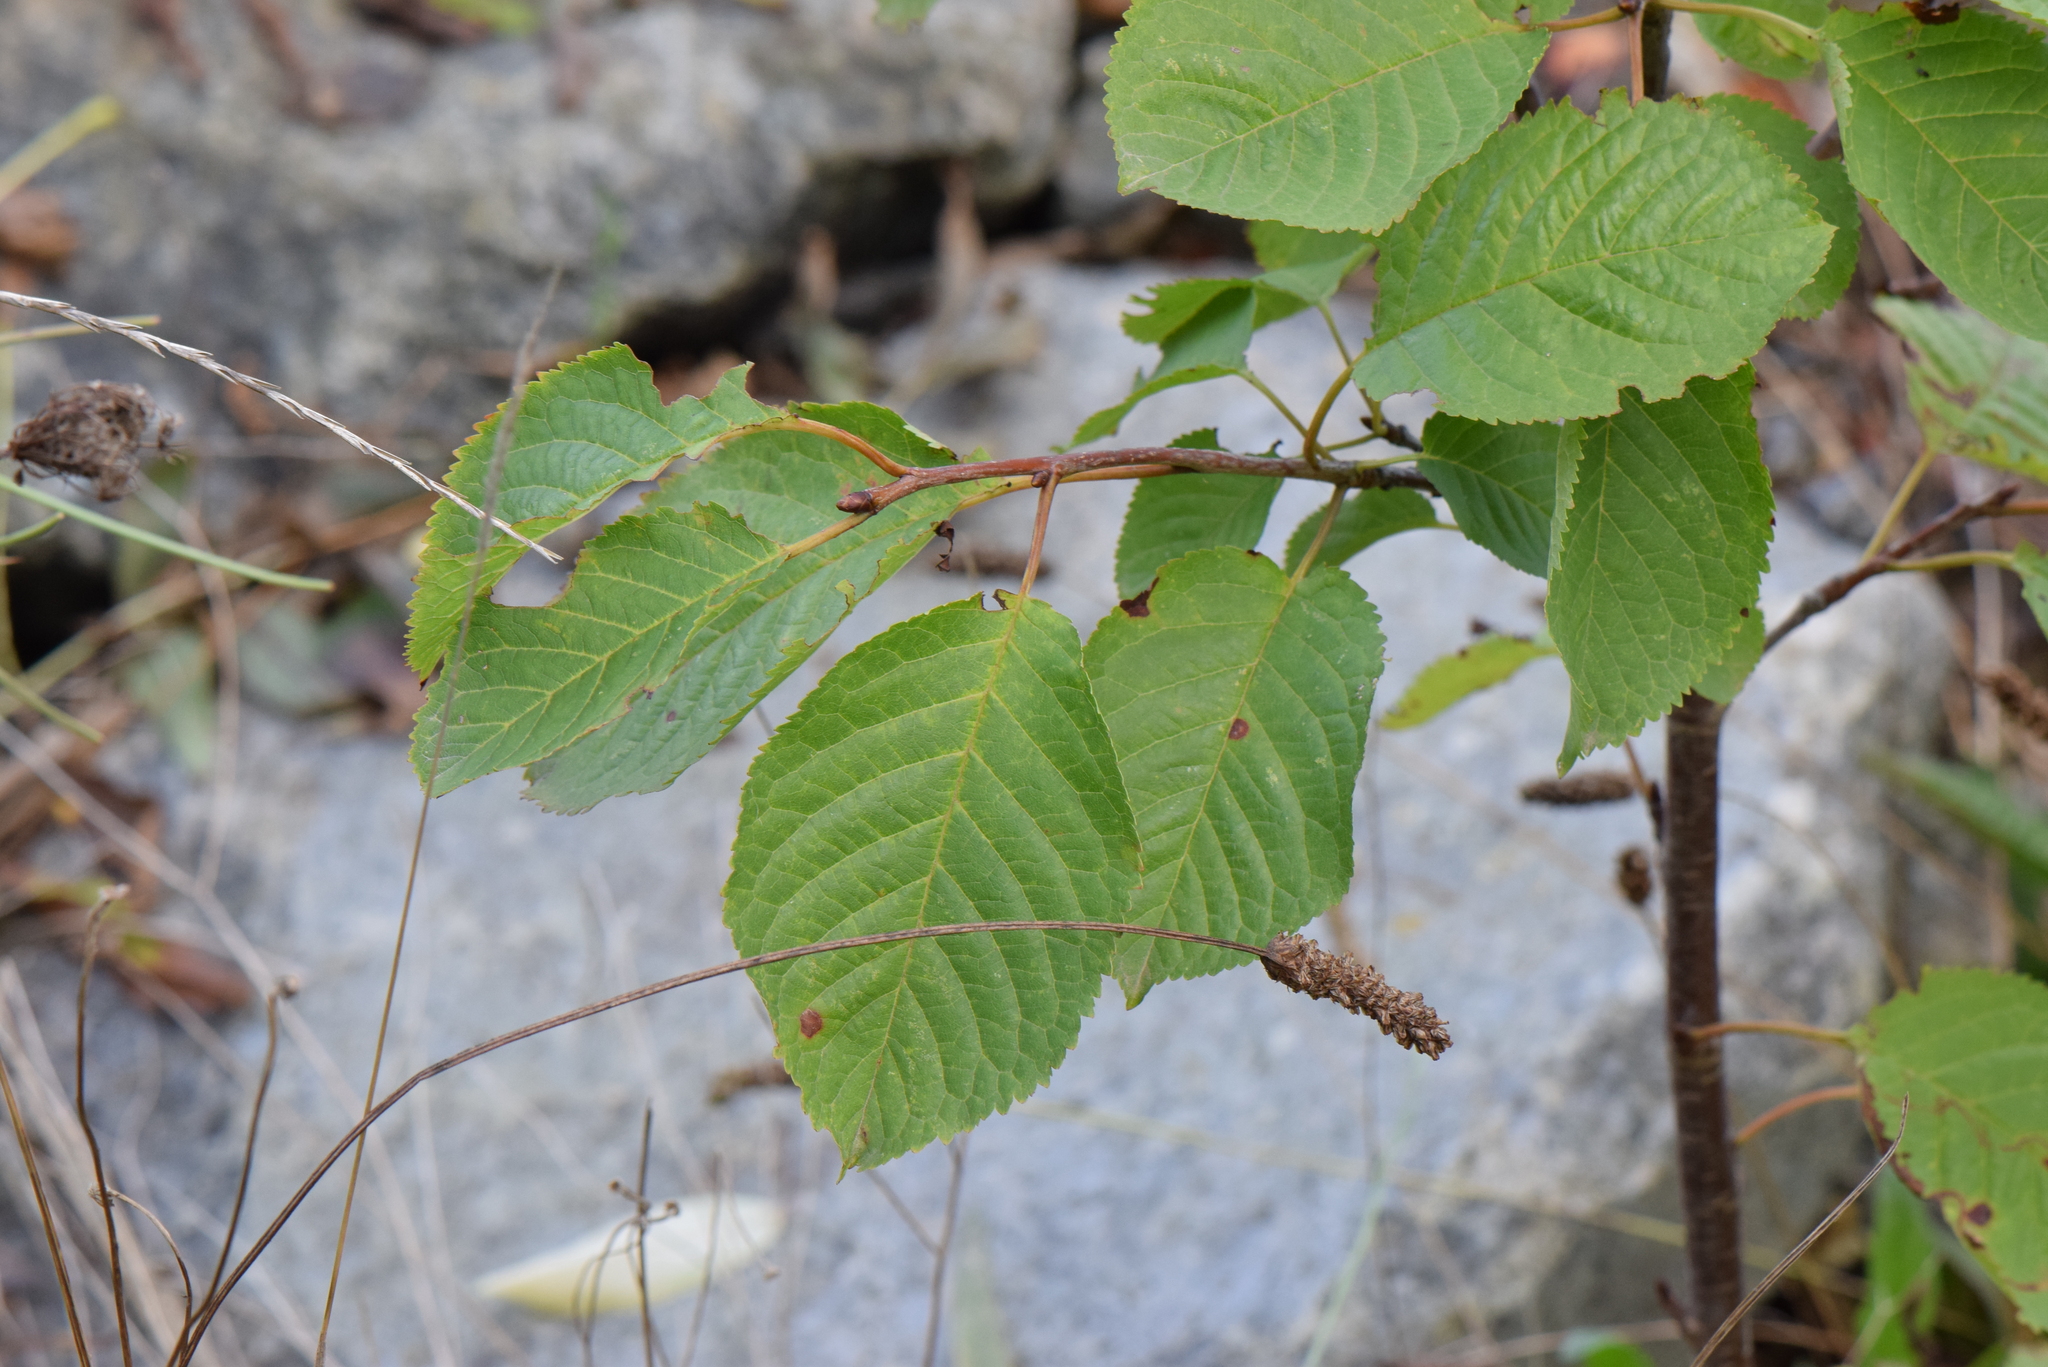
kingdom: Plantae
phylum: Tracheophyta
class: Magnoliopsida
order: Rosales
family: Rosaceae
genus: Prunus
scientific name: Prunus avium
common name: Sweet cherry
